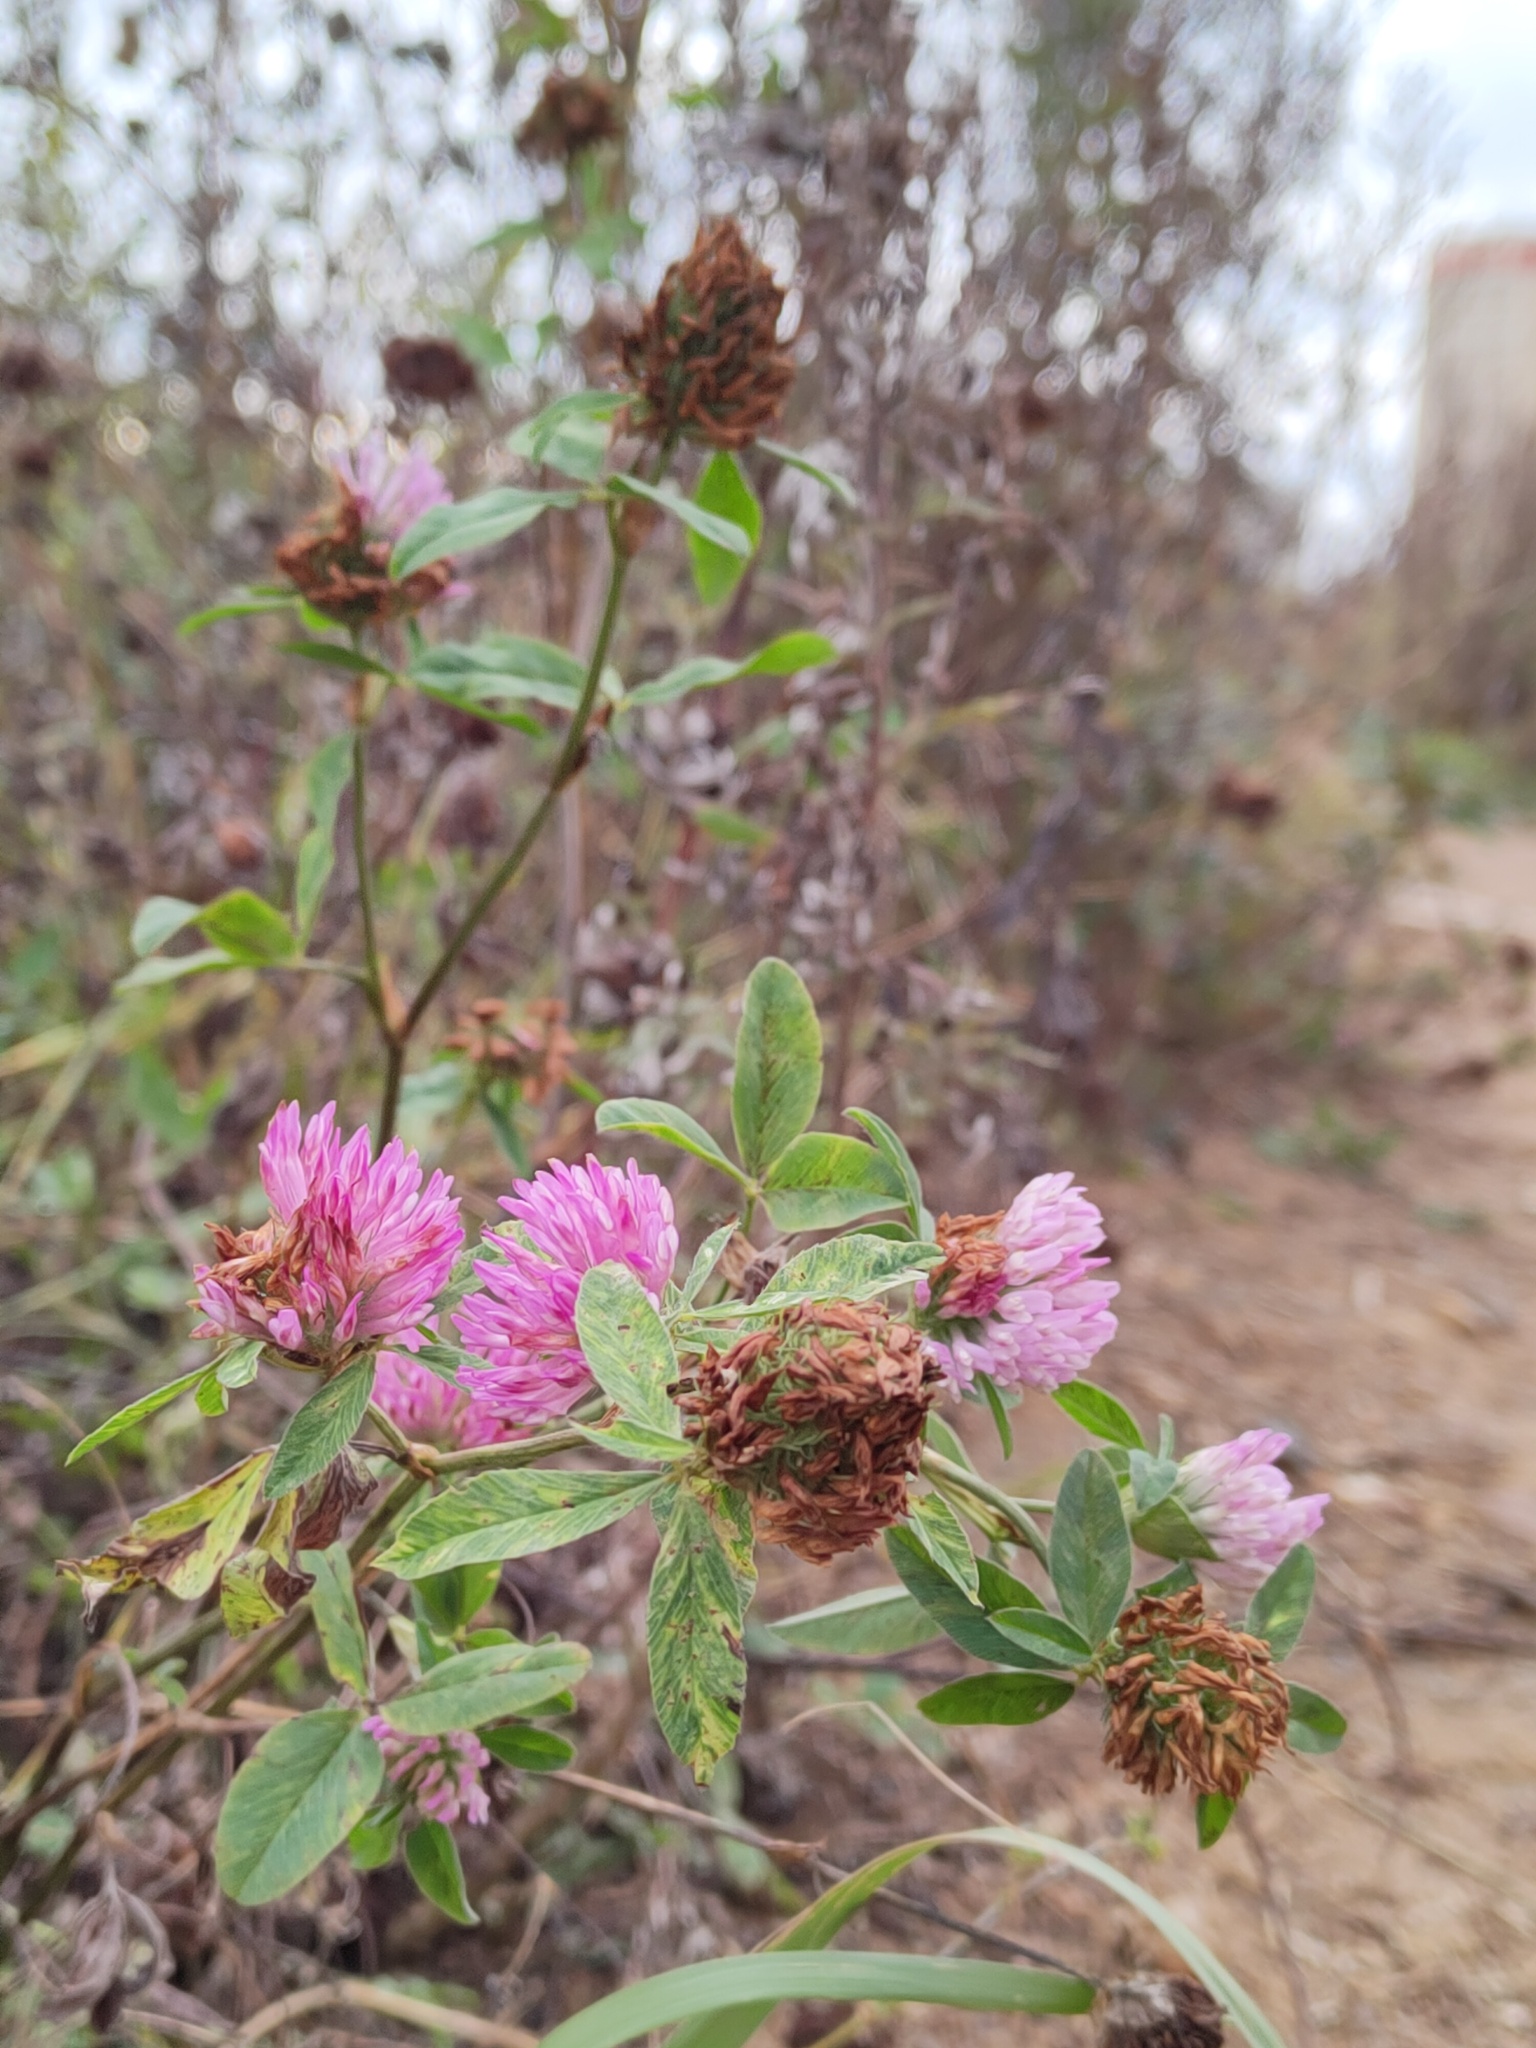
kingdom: Plantae
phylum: Tracheophyta
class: Magnoliopsida
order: Fabales
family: Fabaceae
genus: Trifolium
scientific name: Trifolium pratense
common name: Red clover
